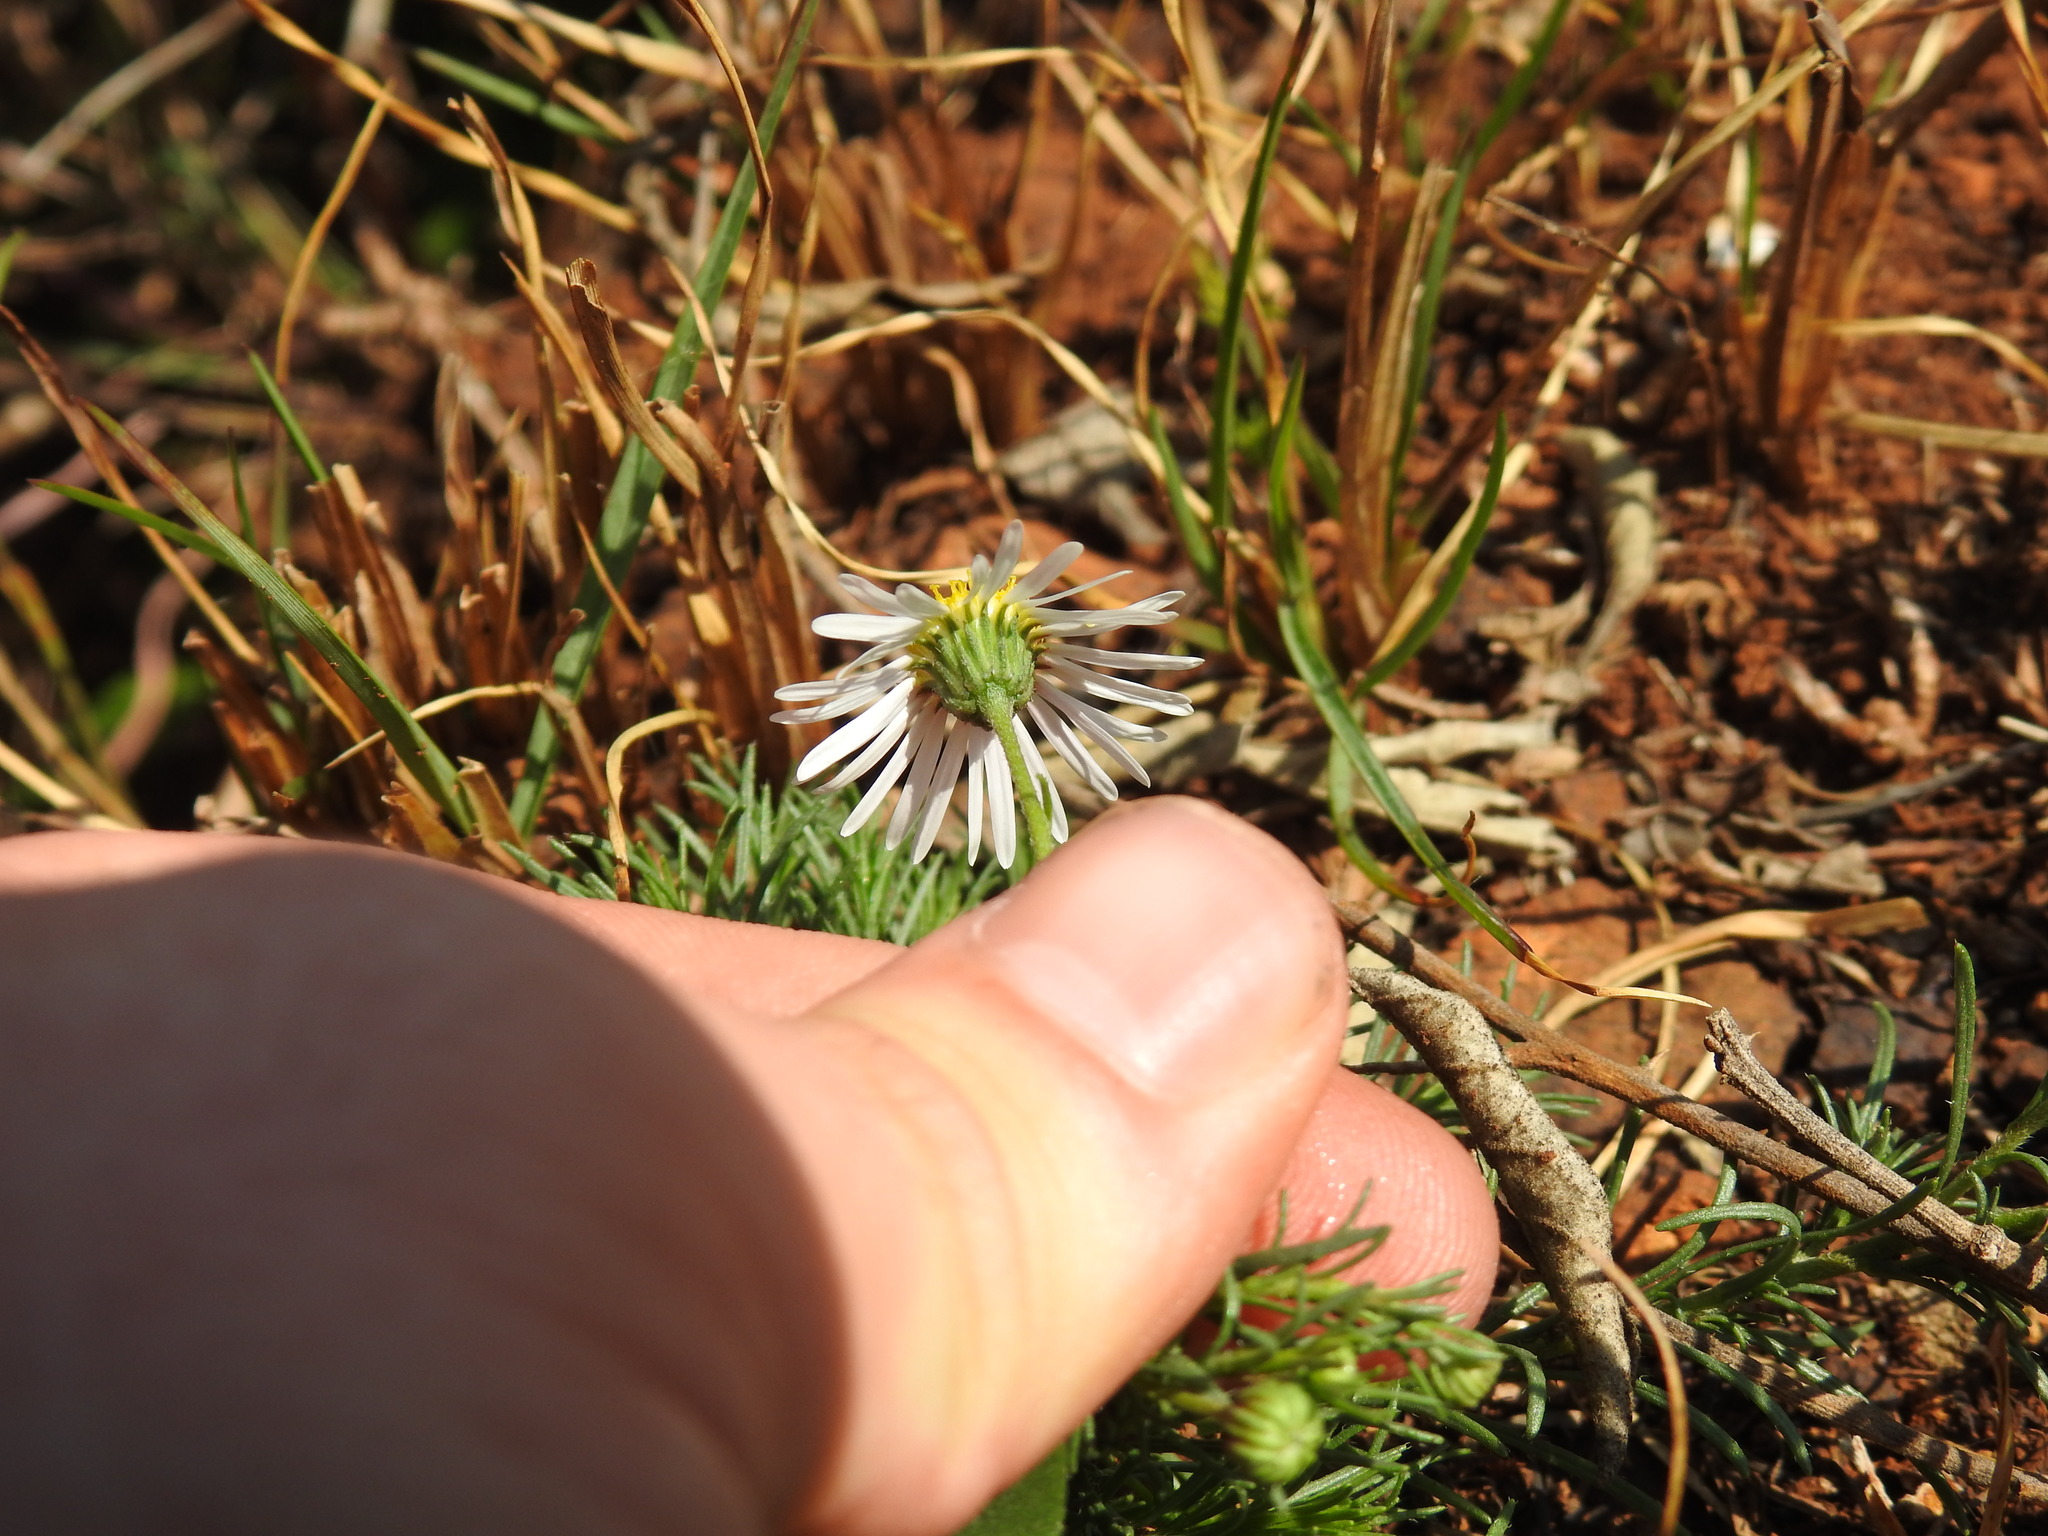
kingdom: Plantae
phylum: Tracheophyta
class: Magnoliopsida
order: Asterales
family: Asteraceae
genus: Felicia
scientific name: Felicia muricata
